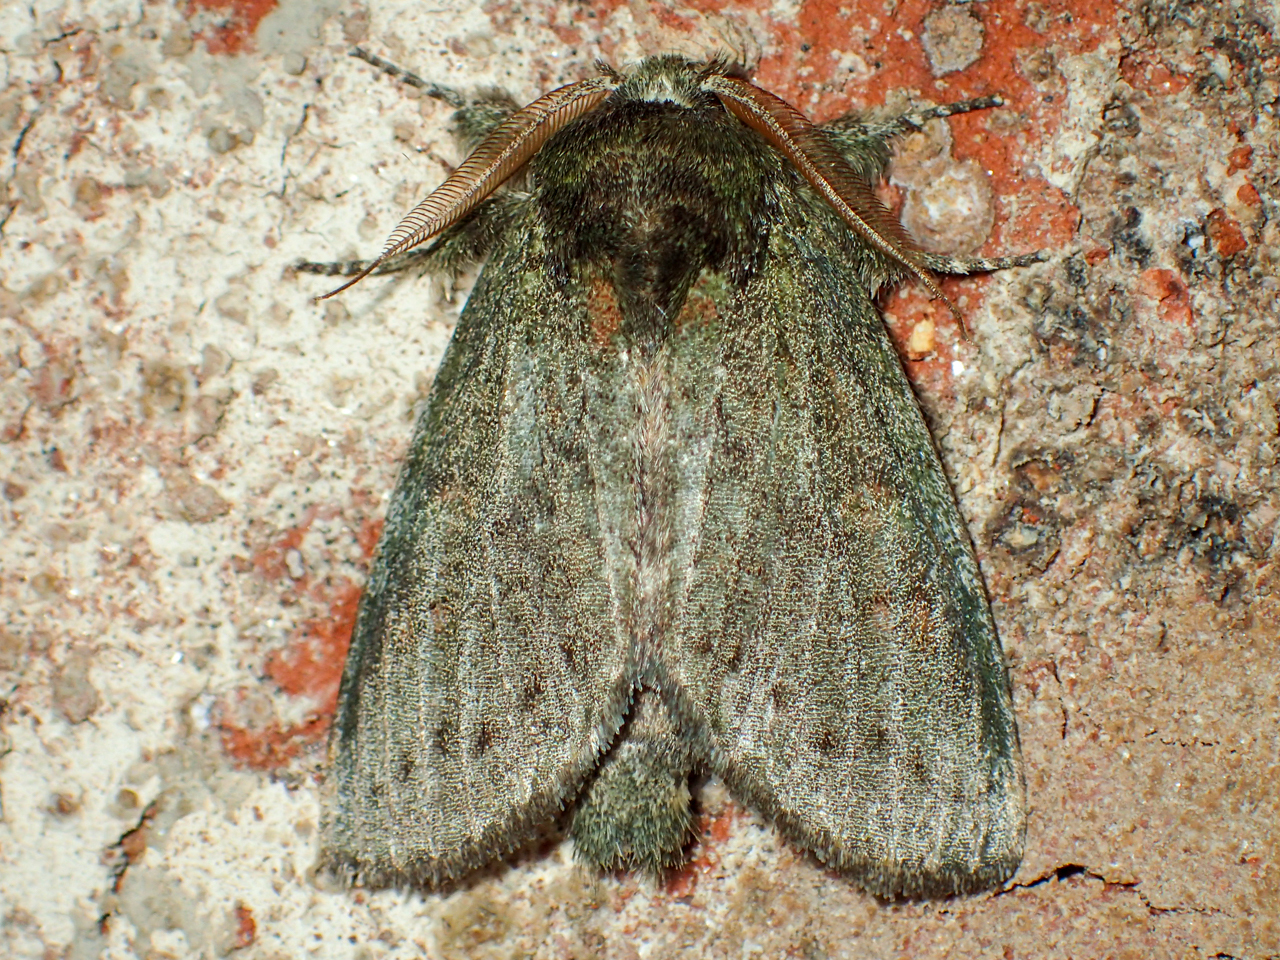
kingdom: Animalia
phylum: Arthropoda
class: Insecta
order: Lepidoptera
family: Notodontidae
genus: Peridea
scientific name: Peridea angulosa
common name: Angulose prominent
